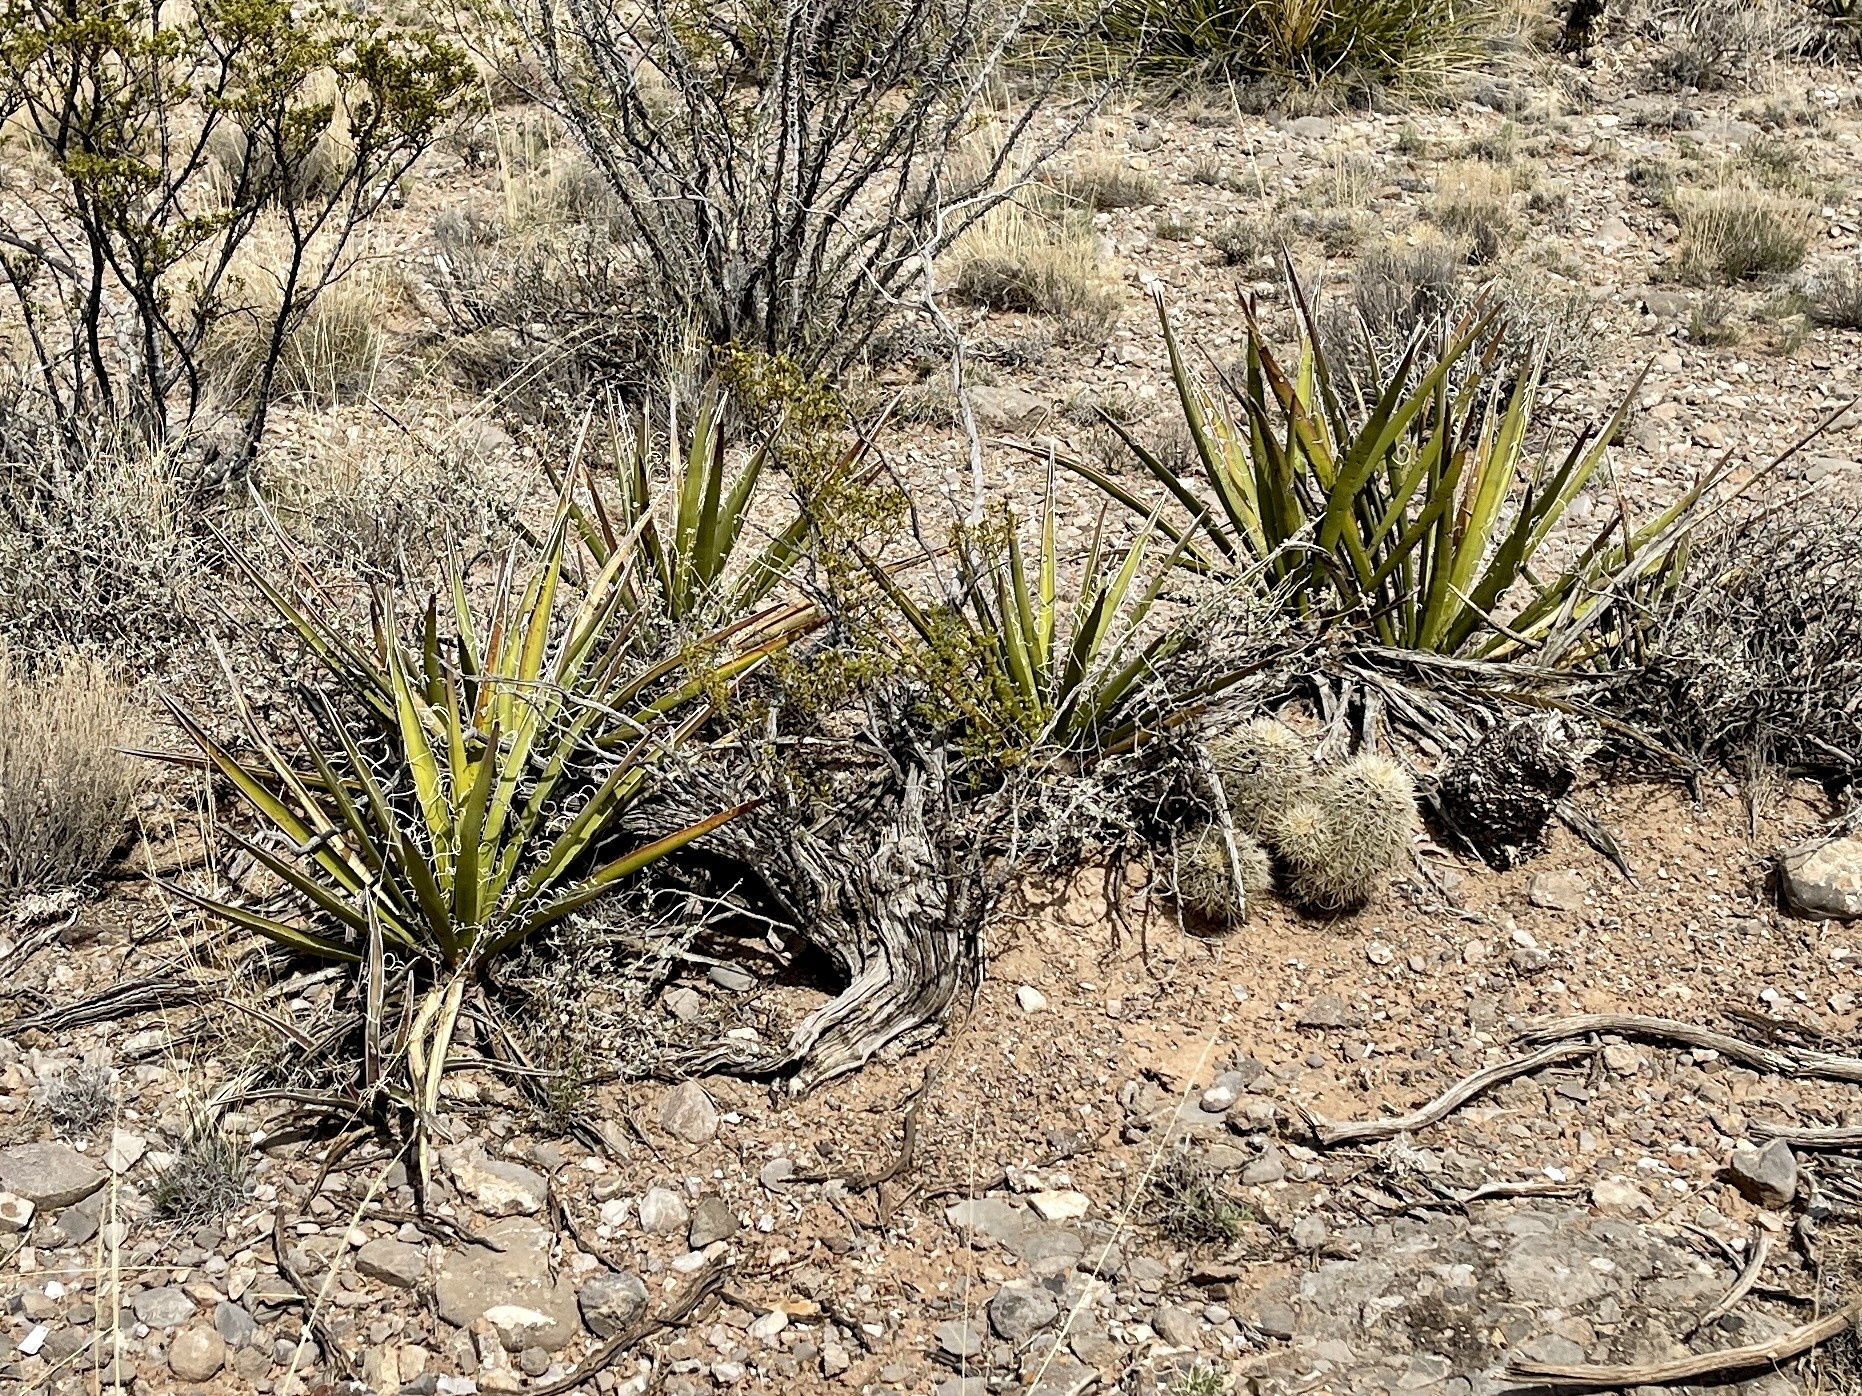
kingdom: Plantae
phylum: Tracheophyta
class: Liliopsida
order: Asparagales
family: Asparagaceae
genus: Yucca
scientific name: Yucca baccata
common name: Banana yucca
